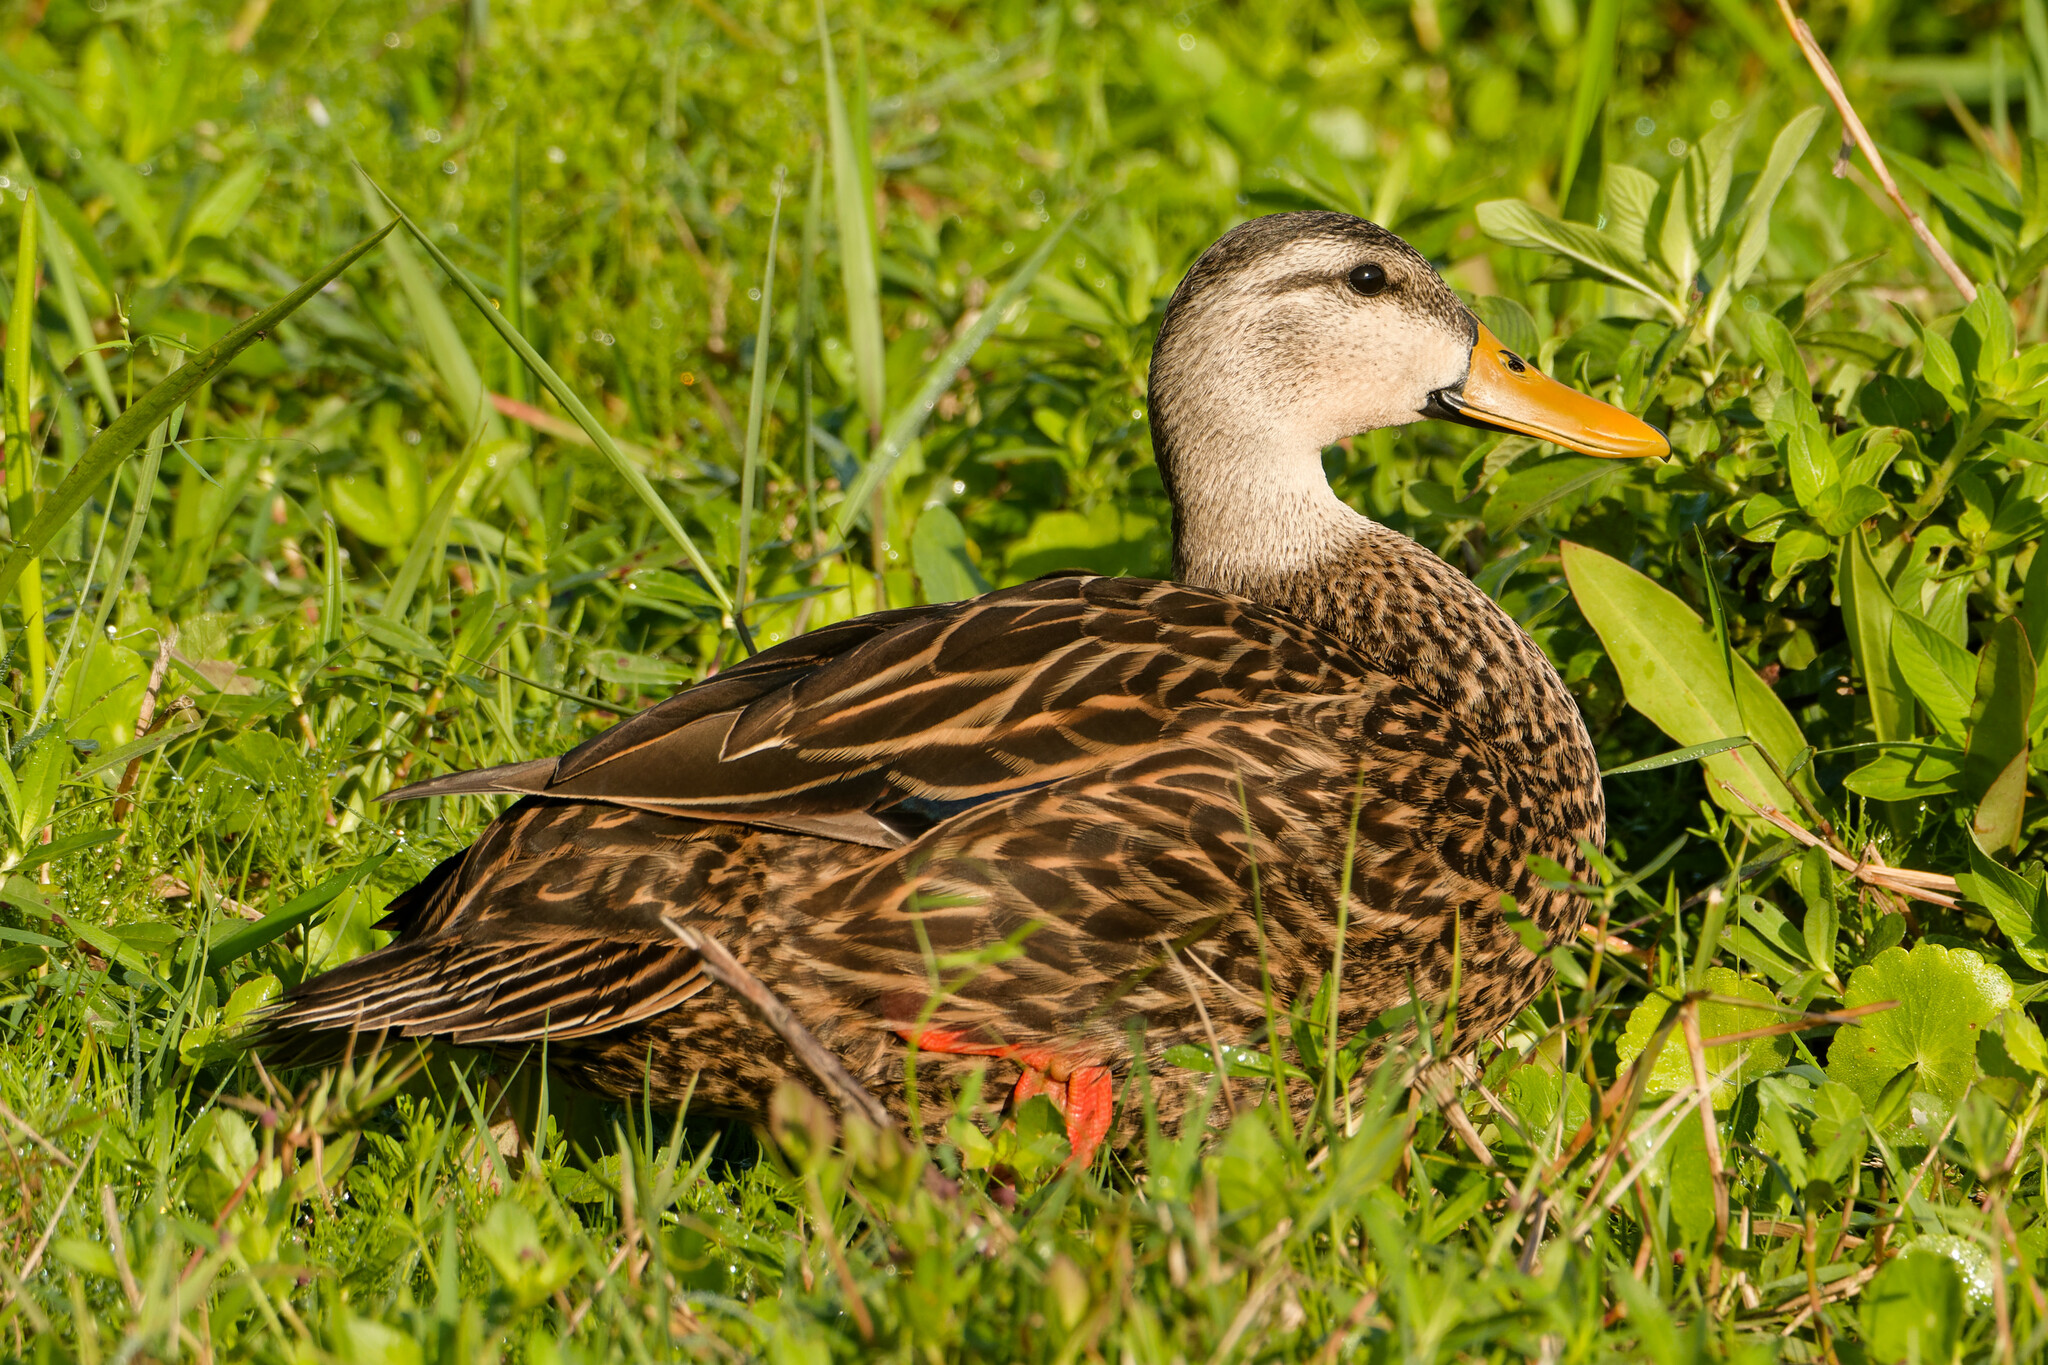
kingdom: Animalia
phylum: Chordata
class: Aves
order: Anseriformes
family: Anatidae
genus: Anas
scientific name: Anas fulvigula
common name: Mottled duck
